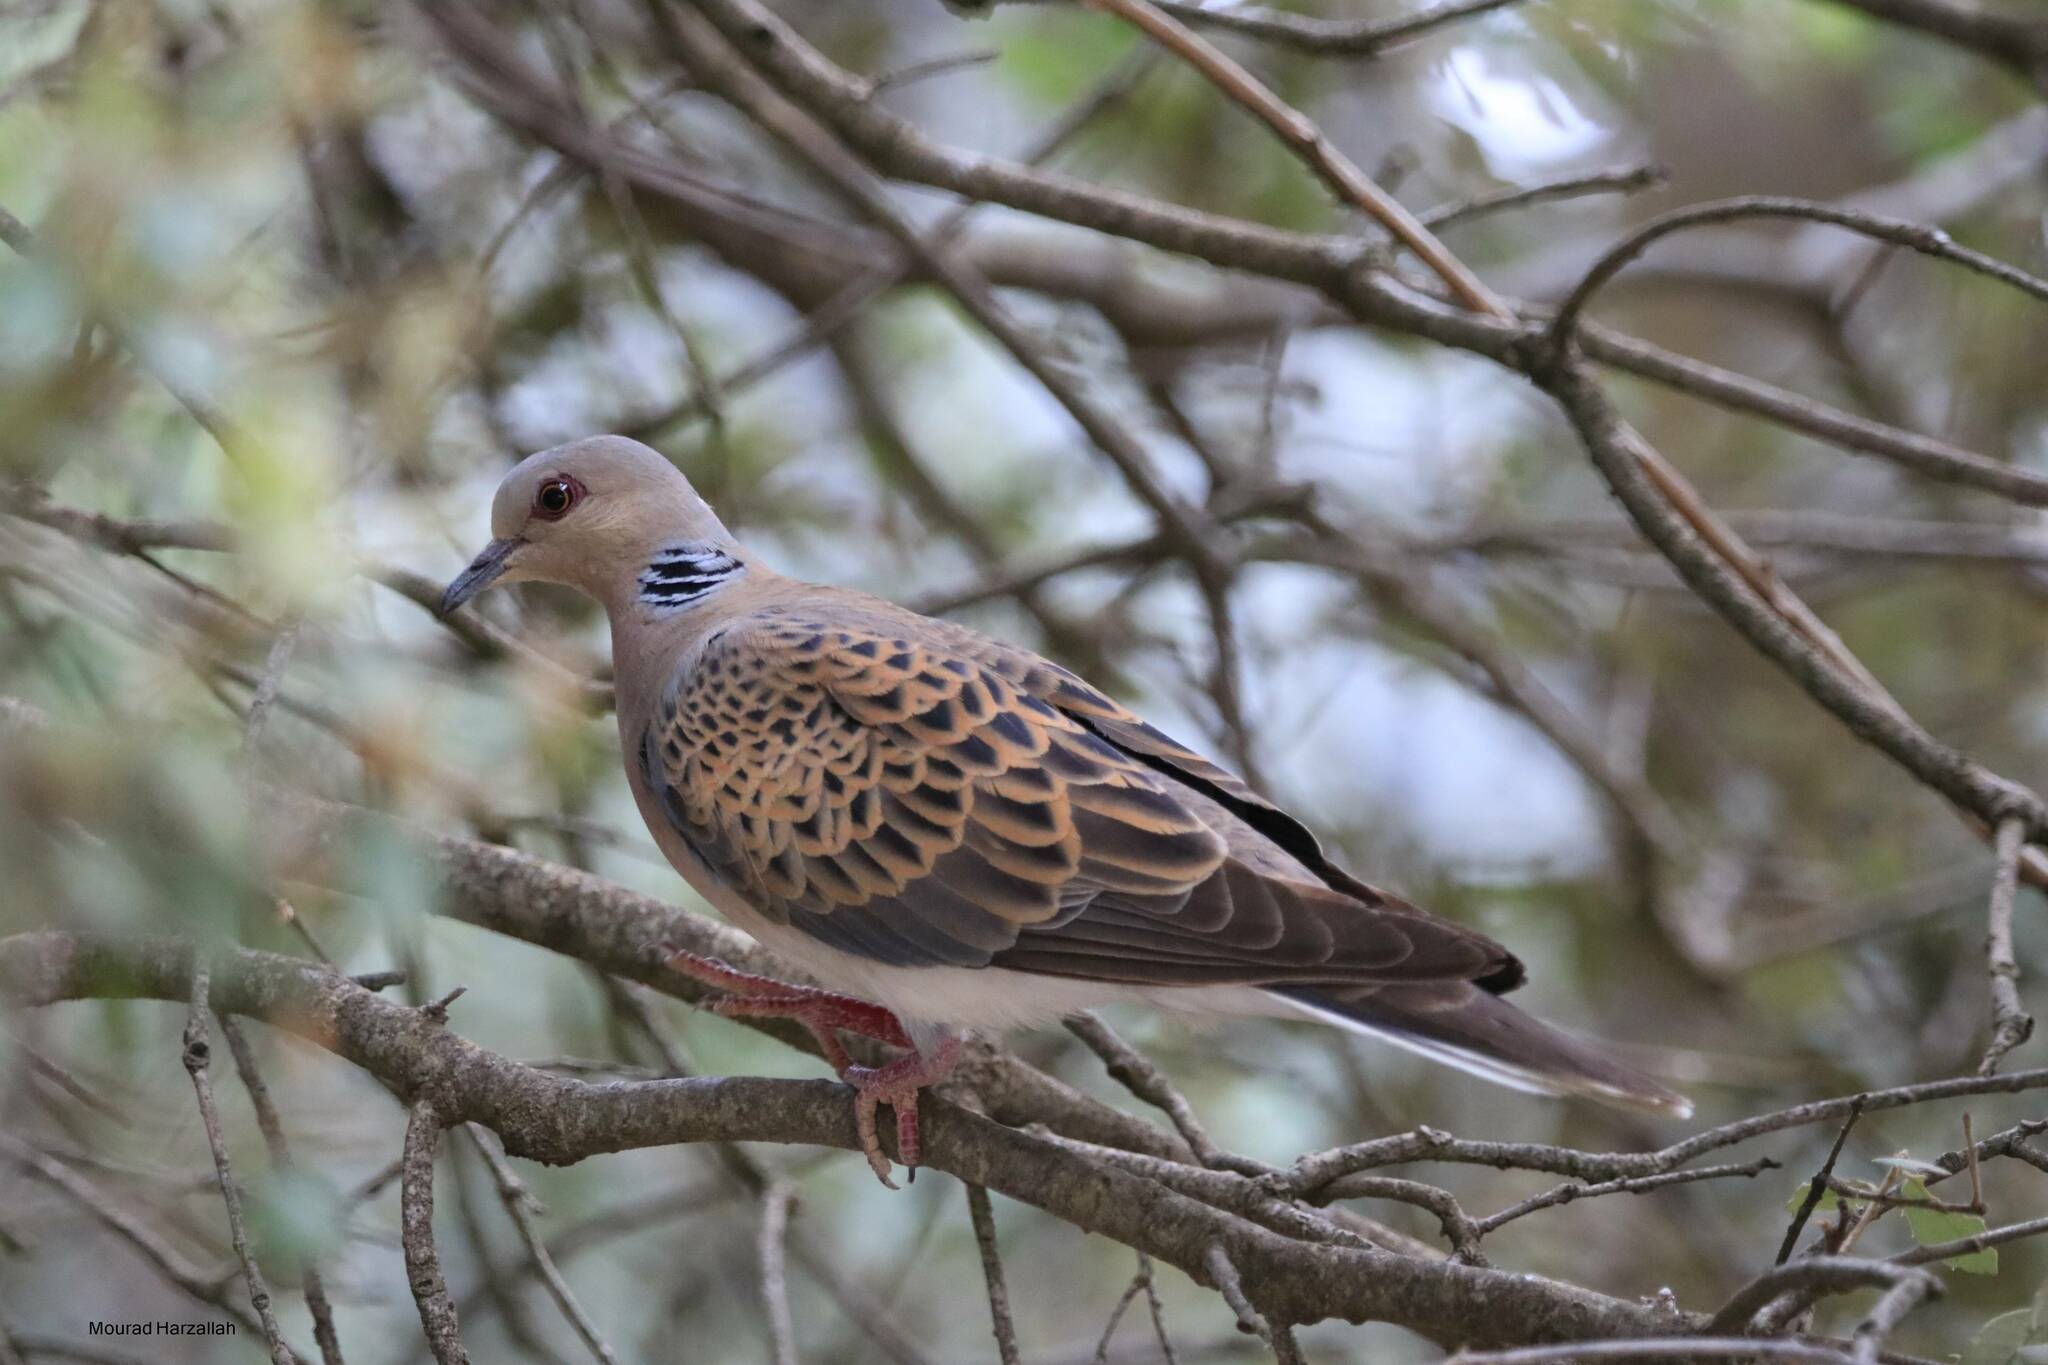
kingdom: Animalia
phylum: Chordata
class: Aves
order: Columbiformes
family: Columbidae
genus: Streptopelia
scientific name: Streptopelia turtur
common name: European turtle dove
